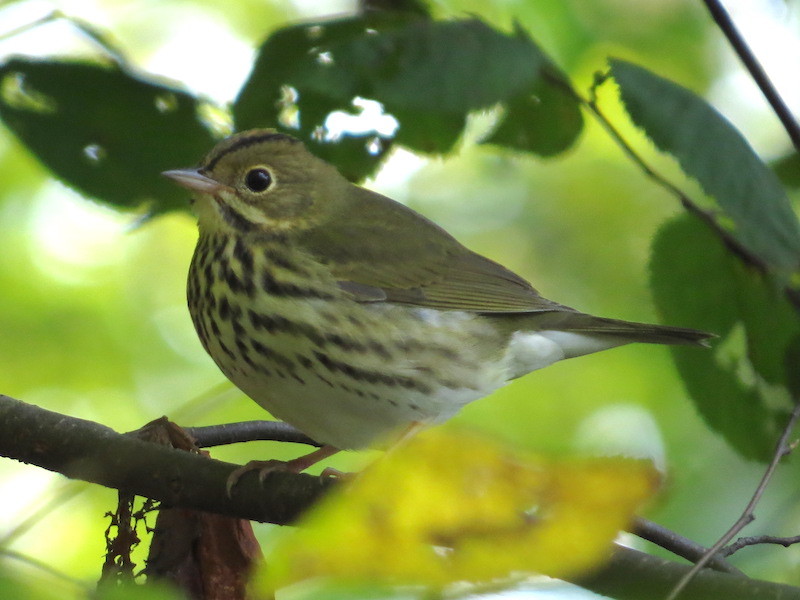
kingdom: Animalia
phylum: Chordata
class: Aves
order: Passeriformes
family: Parulidae
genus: Seiurus
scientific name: Seiurus aurocapilla
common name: Ovenbird
